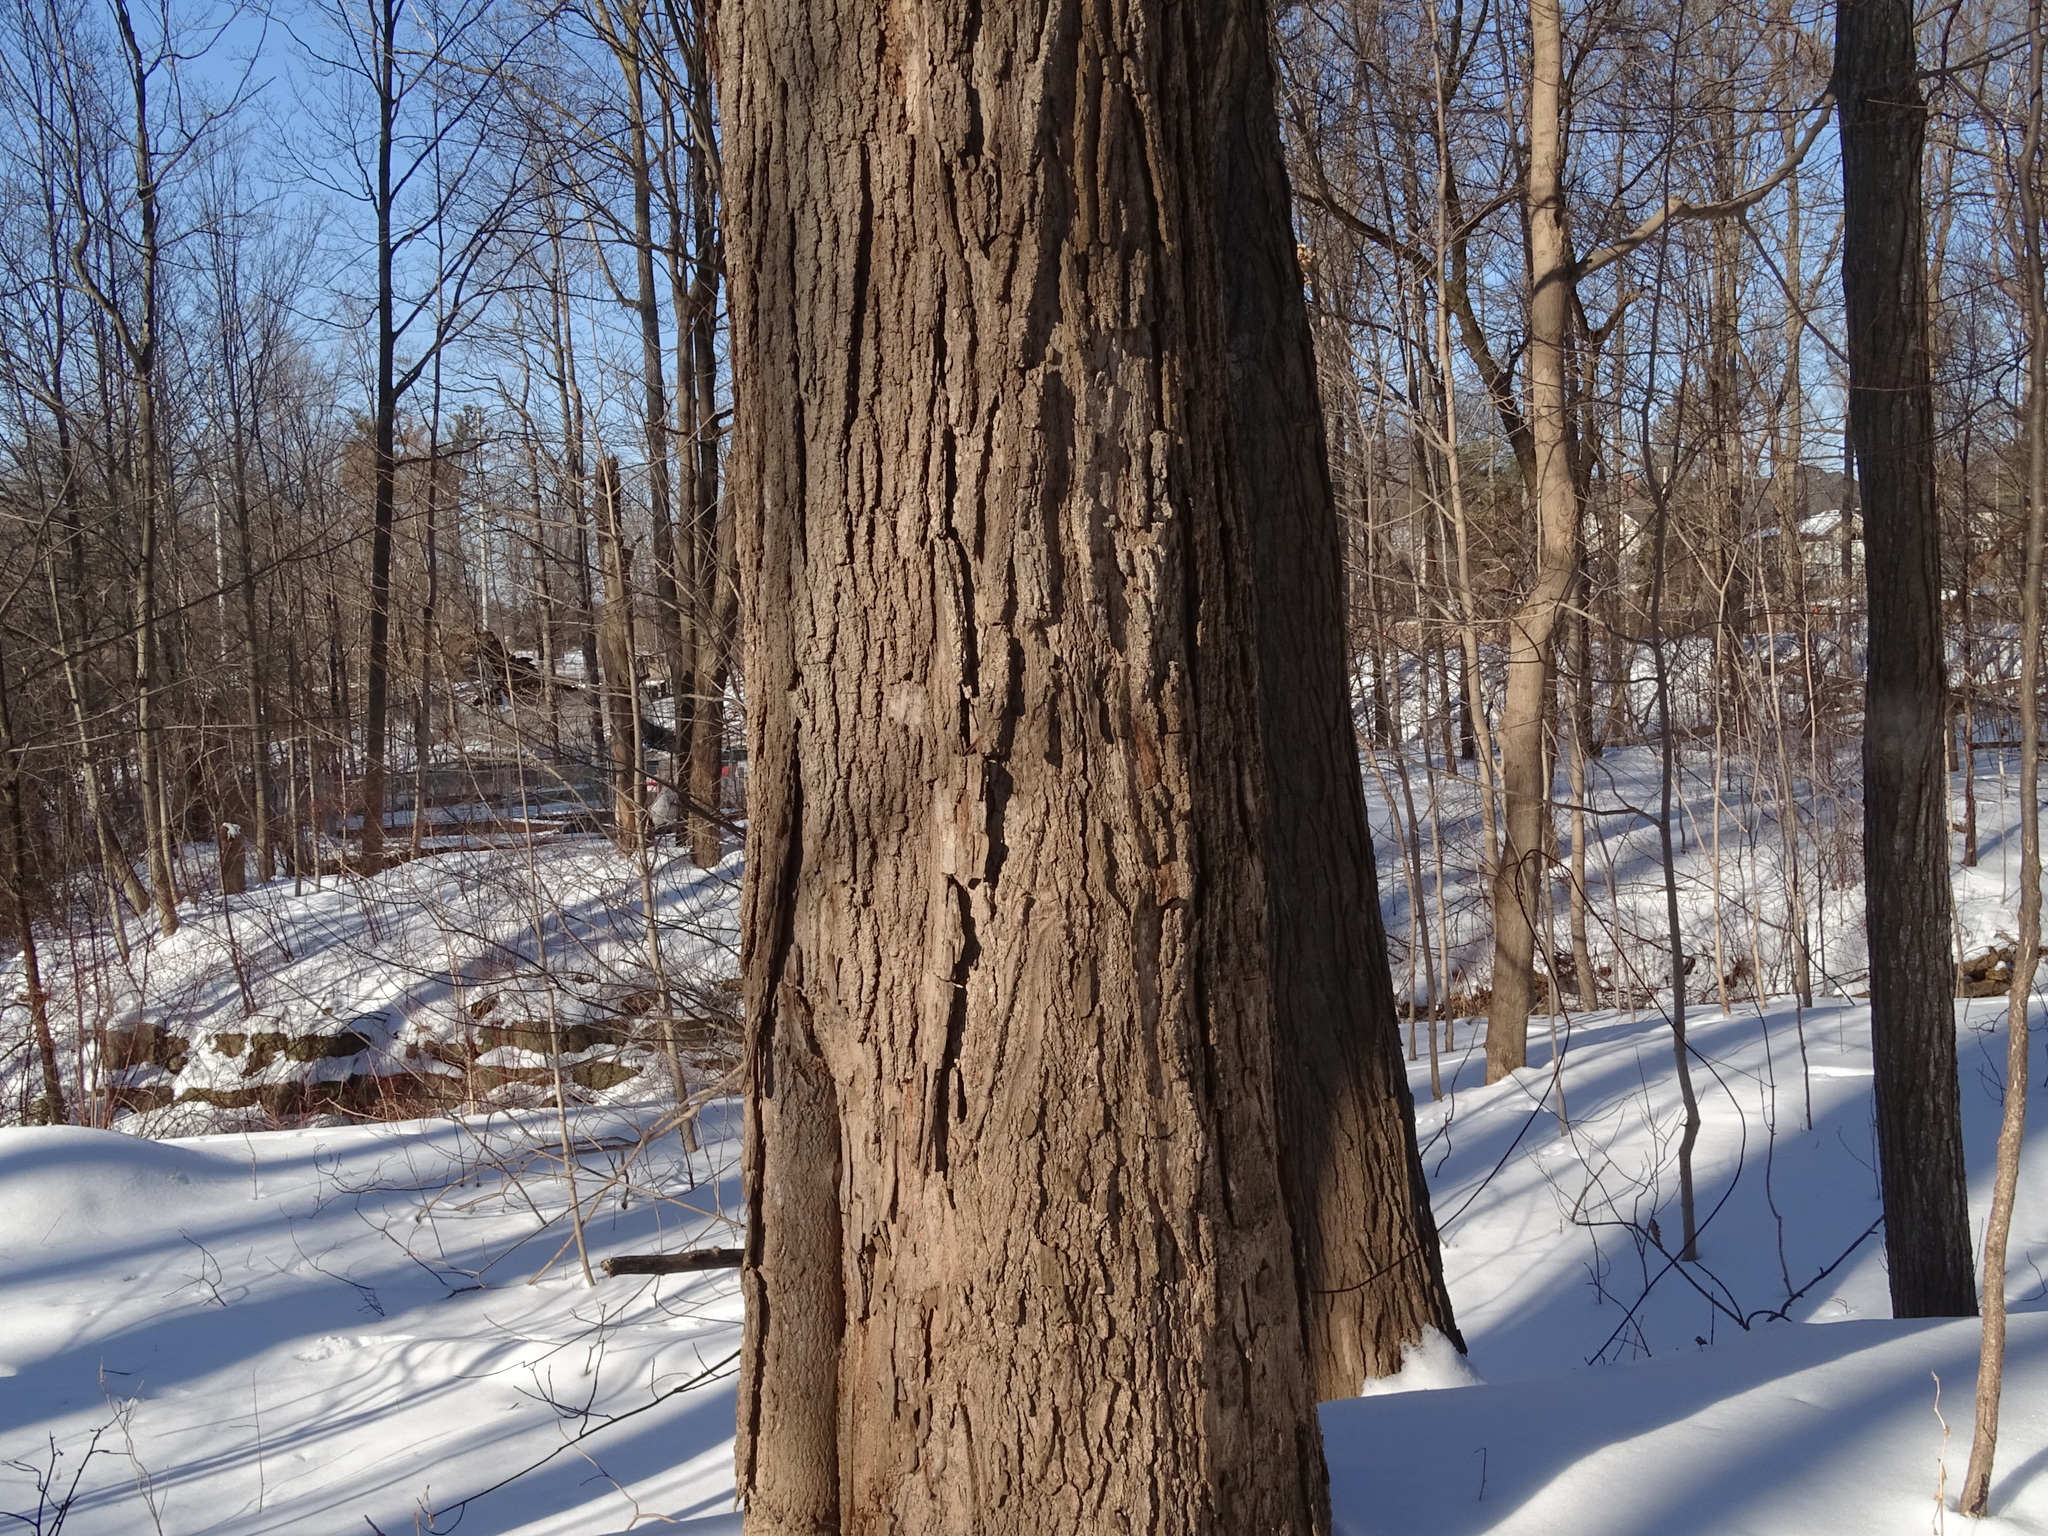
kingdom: Plantae
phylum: Tracheophyta
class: Magnoliopsida
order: Sapindales
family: Sapindaceae
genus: Acer
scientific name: Acer saccharum
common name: Sugar maple
